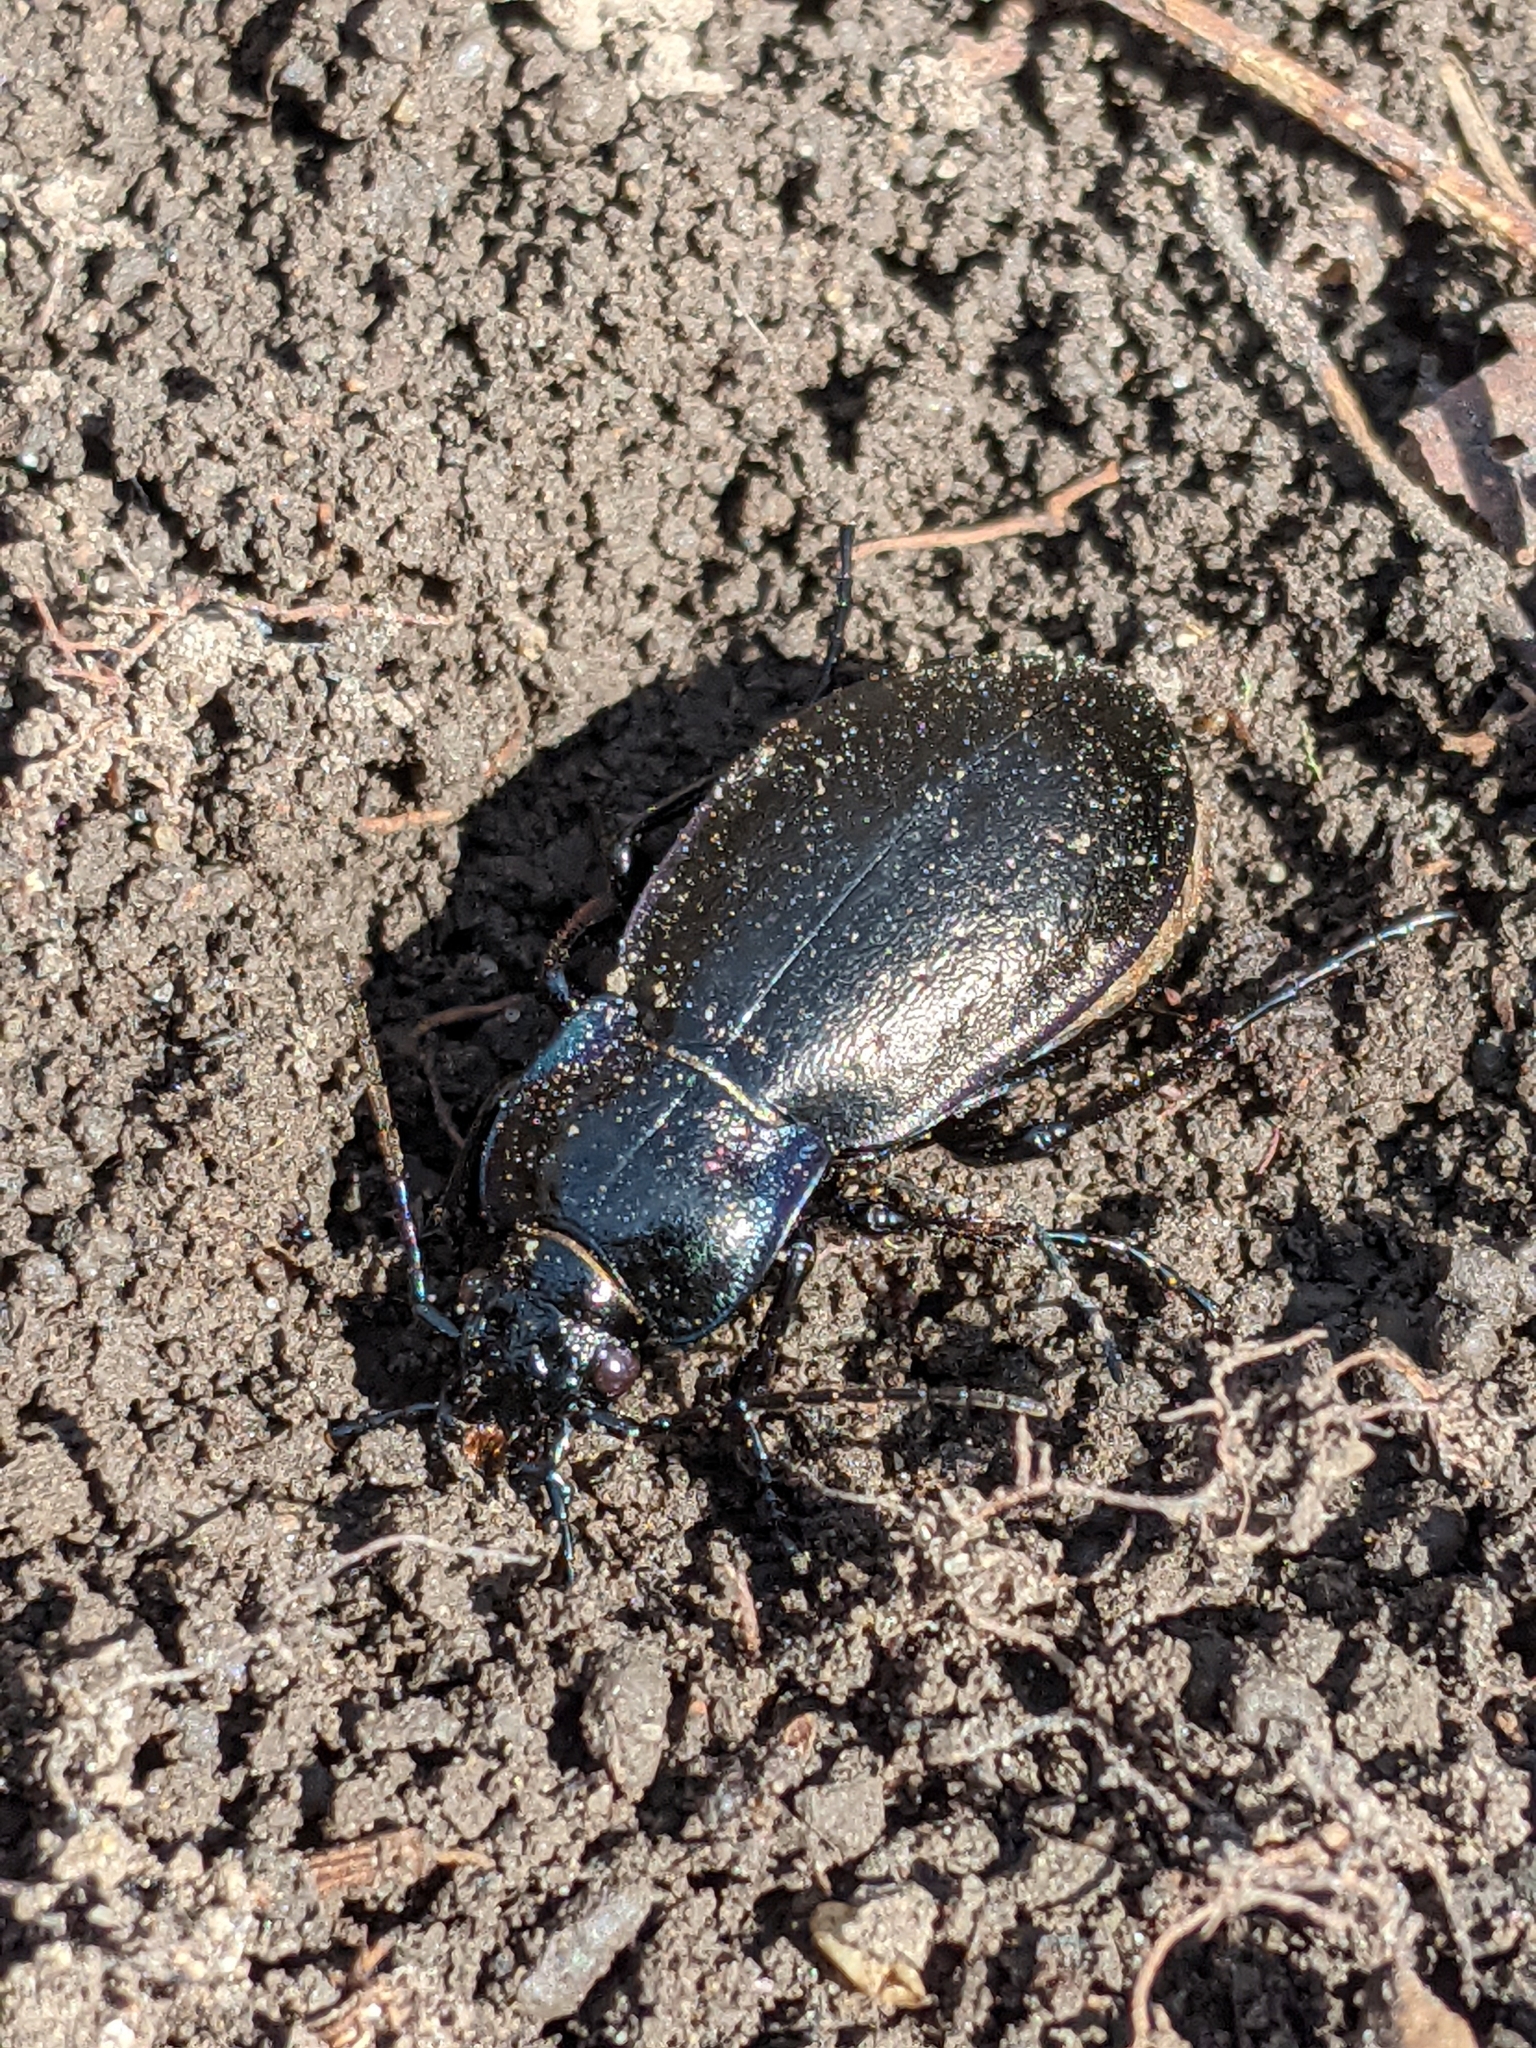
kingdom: Animalia
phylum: Arthropoda
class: Insecta
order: Coleoptera
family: Carabidae
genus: Carabus
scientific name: Carabus nemoralis
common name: European ground beetle
